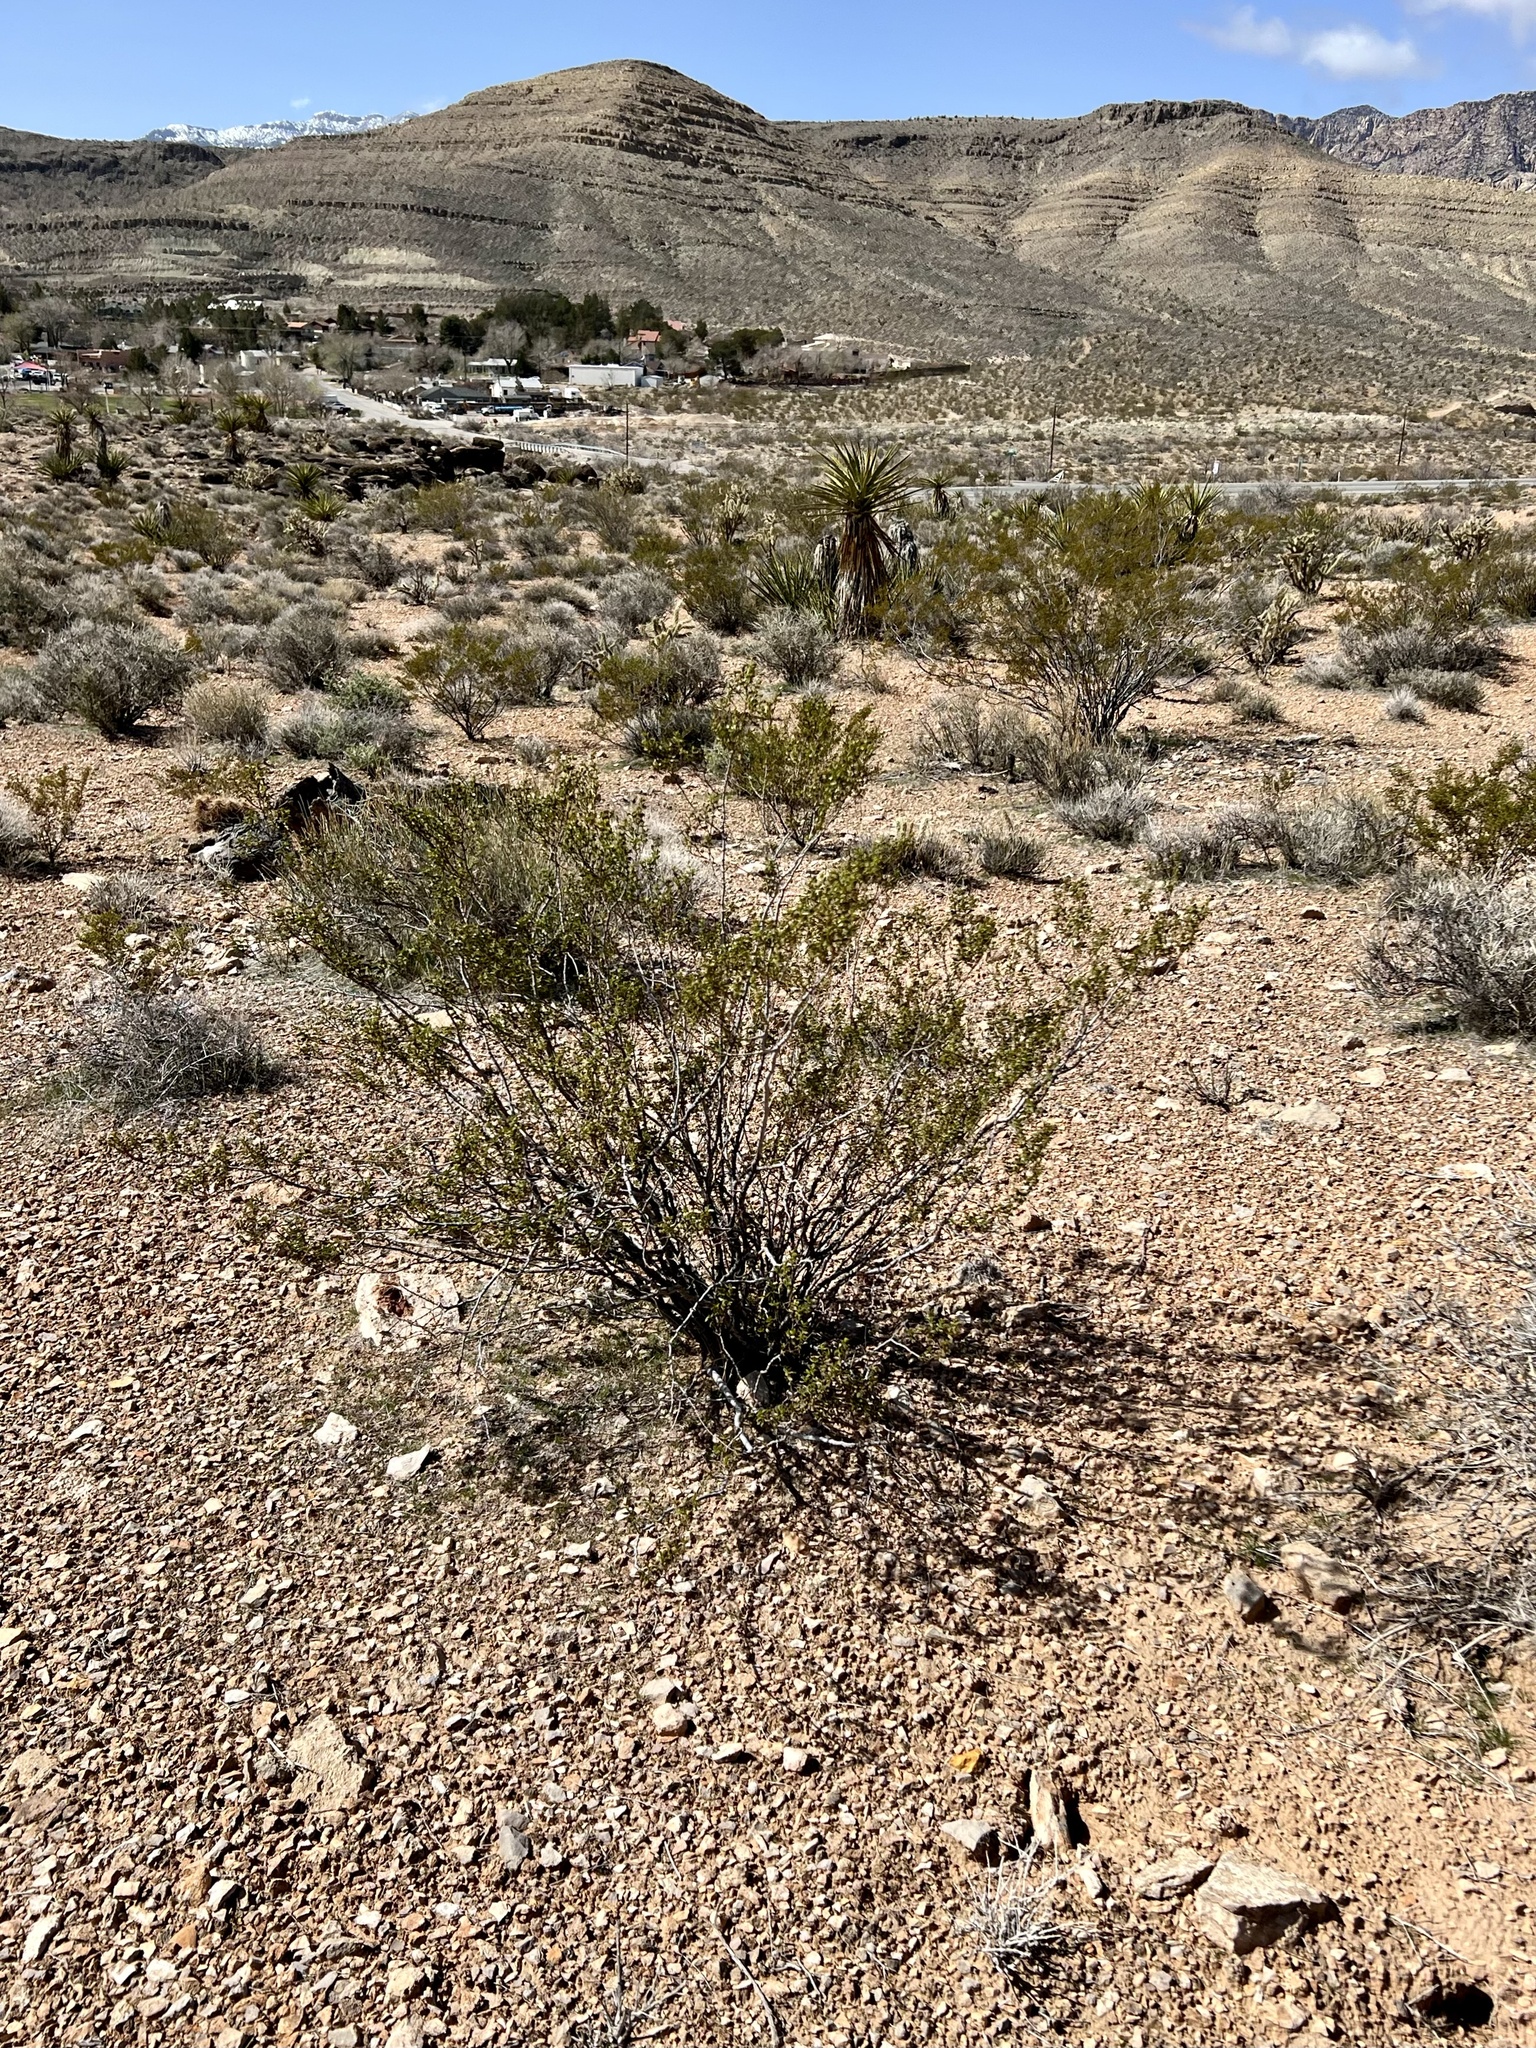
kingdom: Plantae
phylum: Tracheophyta
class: Magnoliopsida
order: Zygophyllales
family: Zygophyllaceae
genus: Larrea
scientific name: Larrea tridentata
